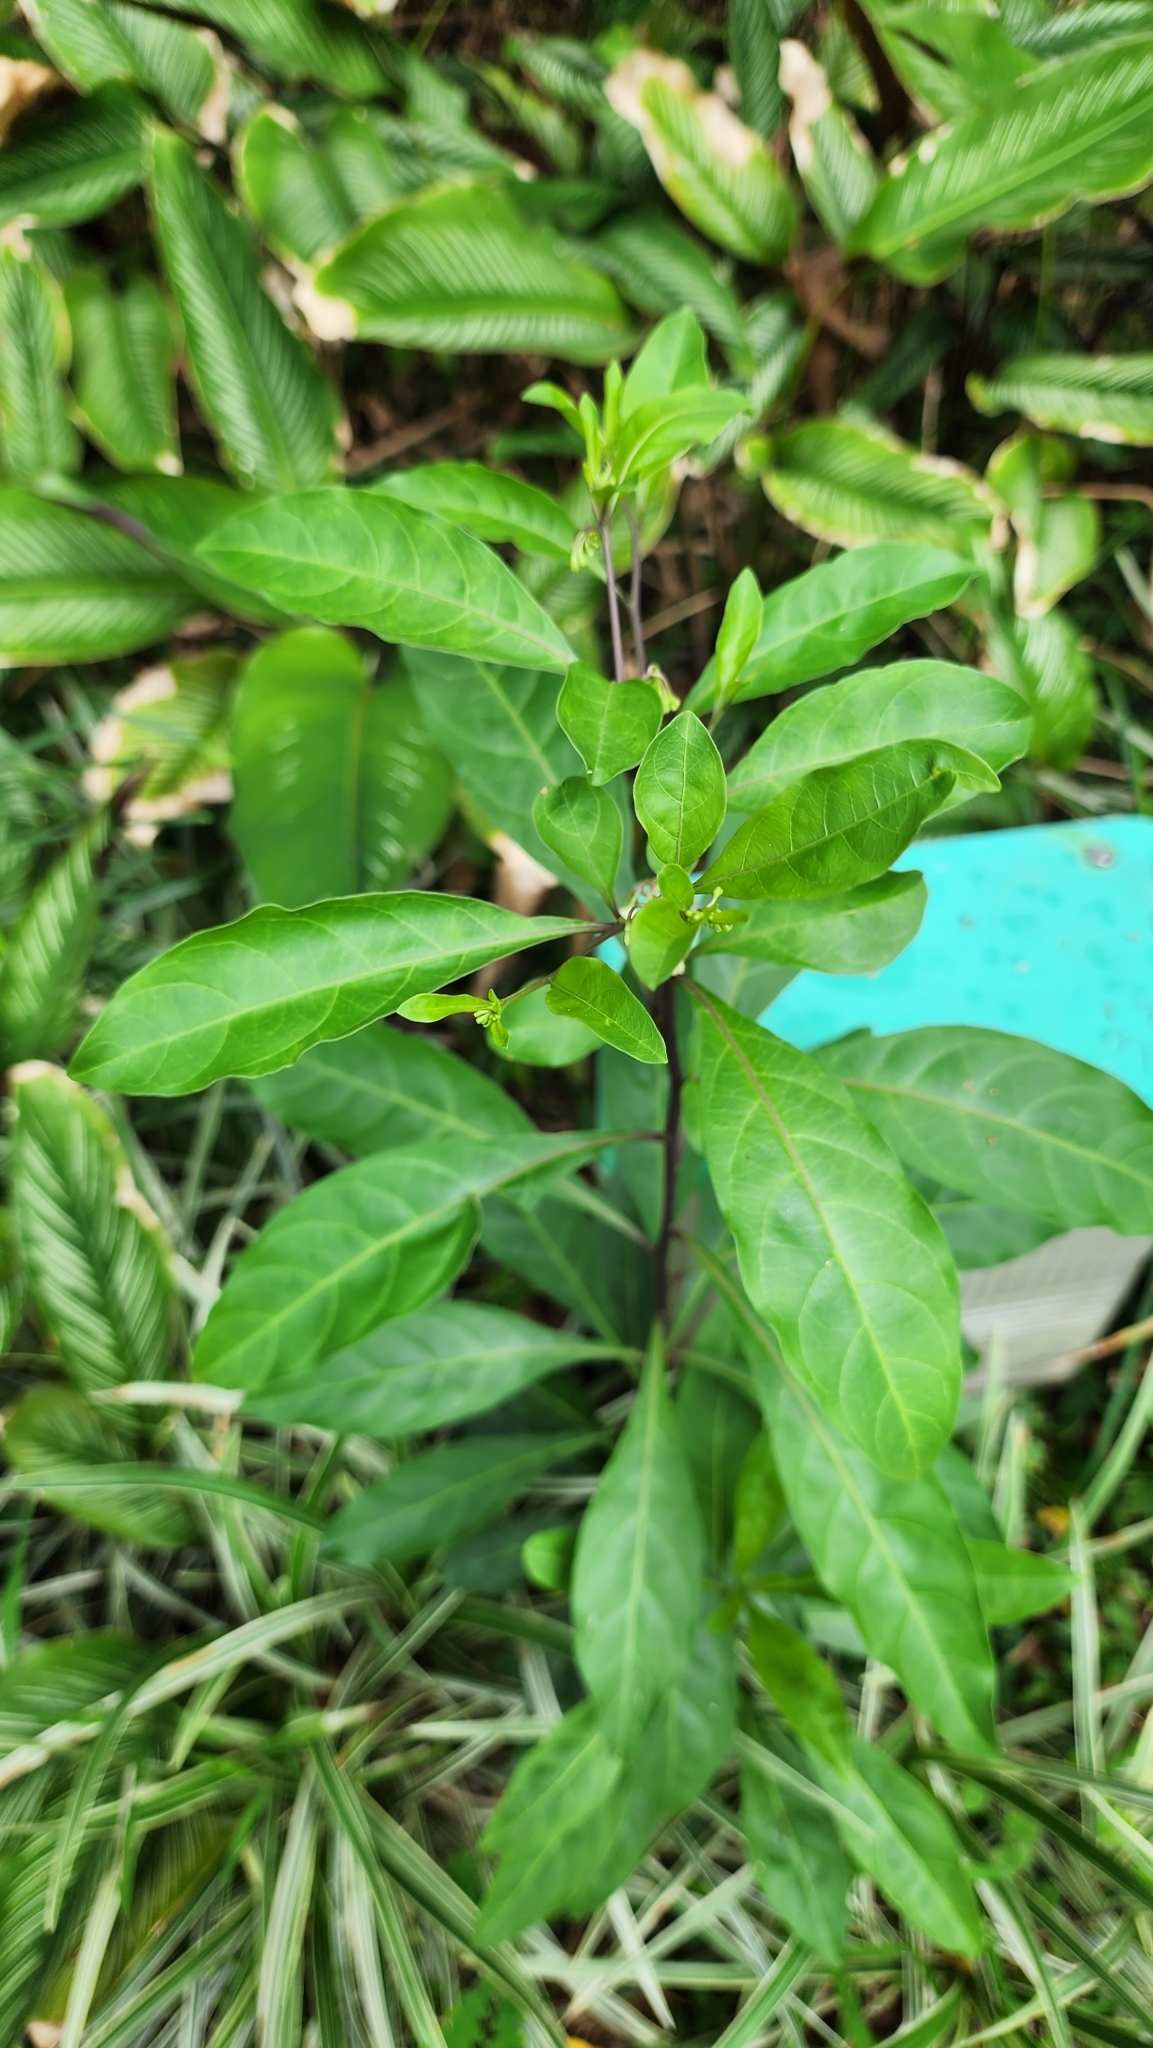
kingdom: Plantae
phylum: Tracheophyta
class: Magnoliopsida
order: Solanales
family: Solanaceae
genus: Solanum
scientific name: Solanum diphyllum
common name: Twoleaf nightshade
